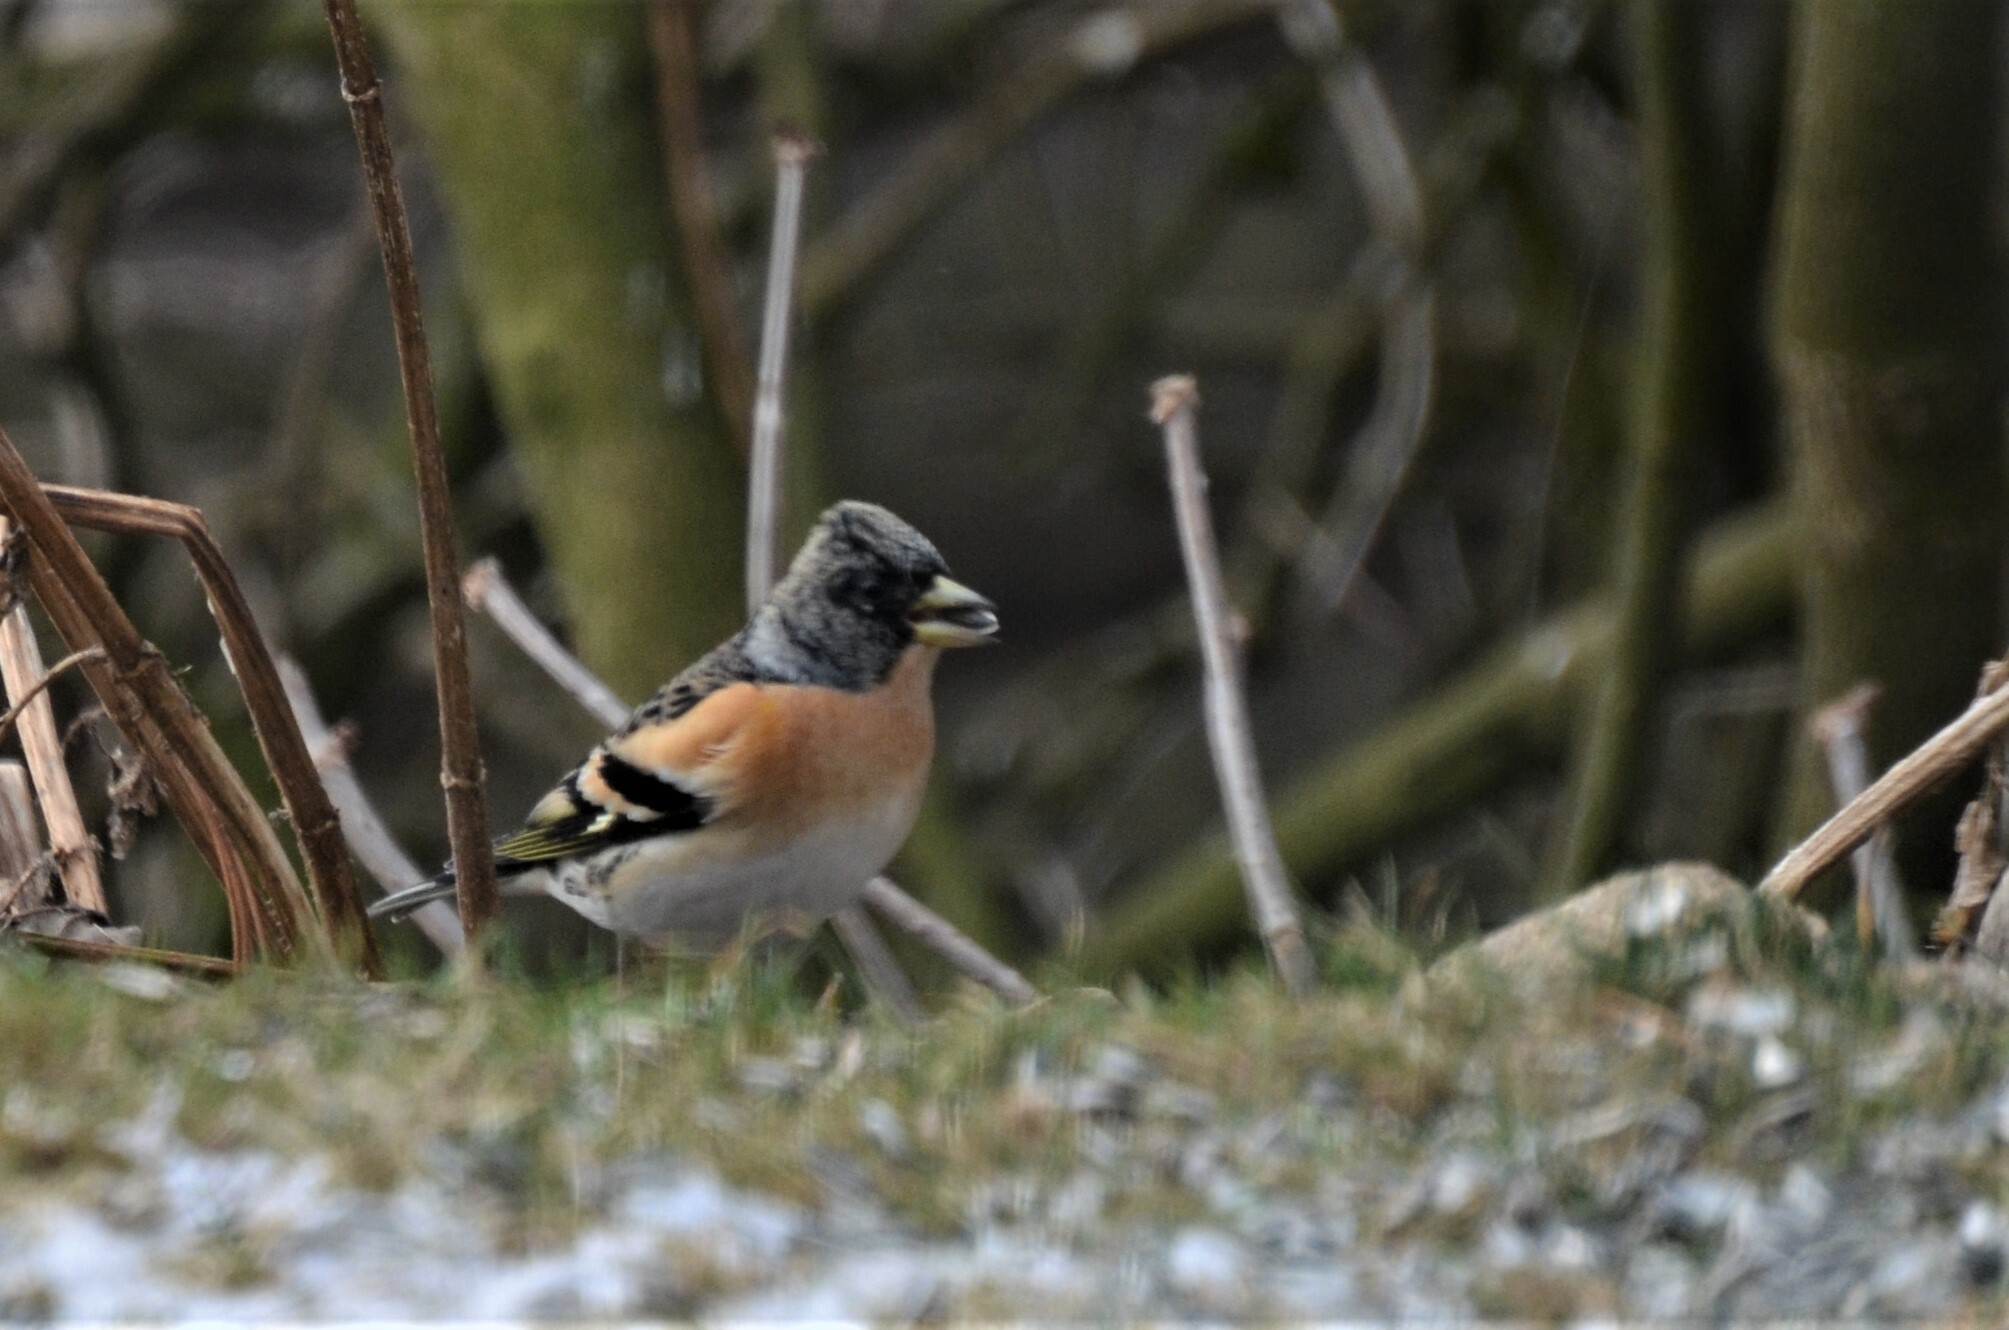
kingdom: Animalia
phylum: Chordata
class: Aves
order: Passeriformes
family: Fringillidae
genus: Fringilla
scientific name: Fringilla montifringilla
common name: Brambling
